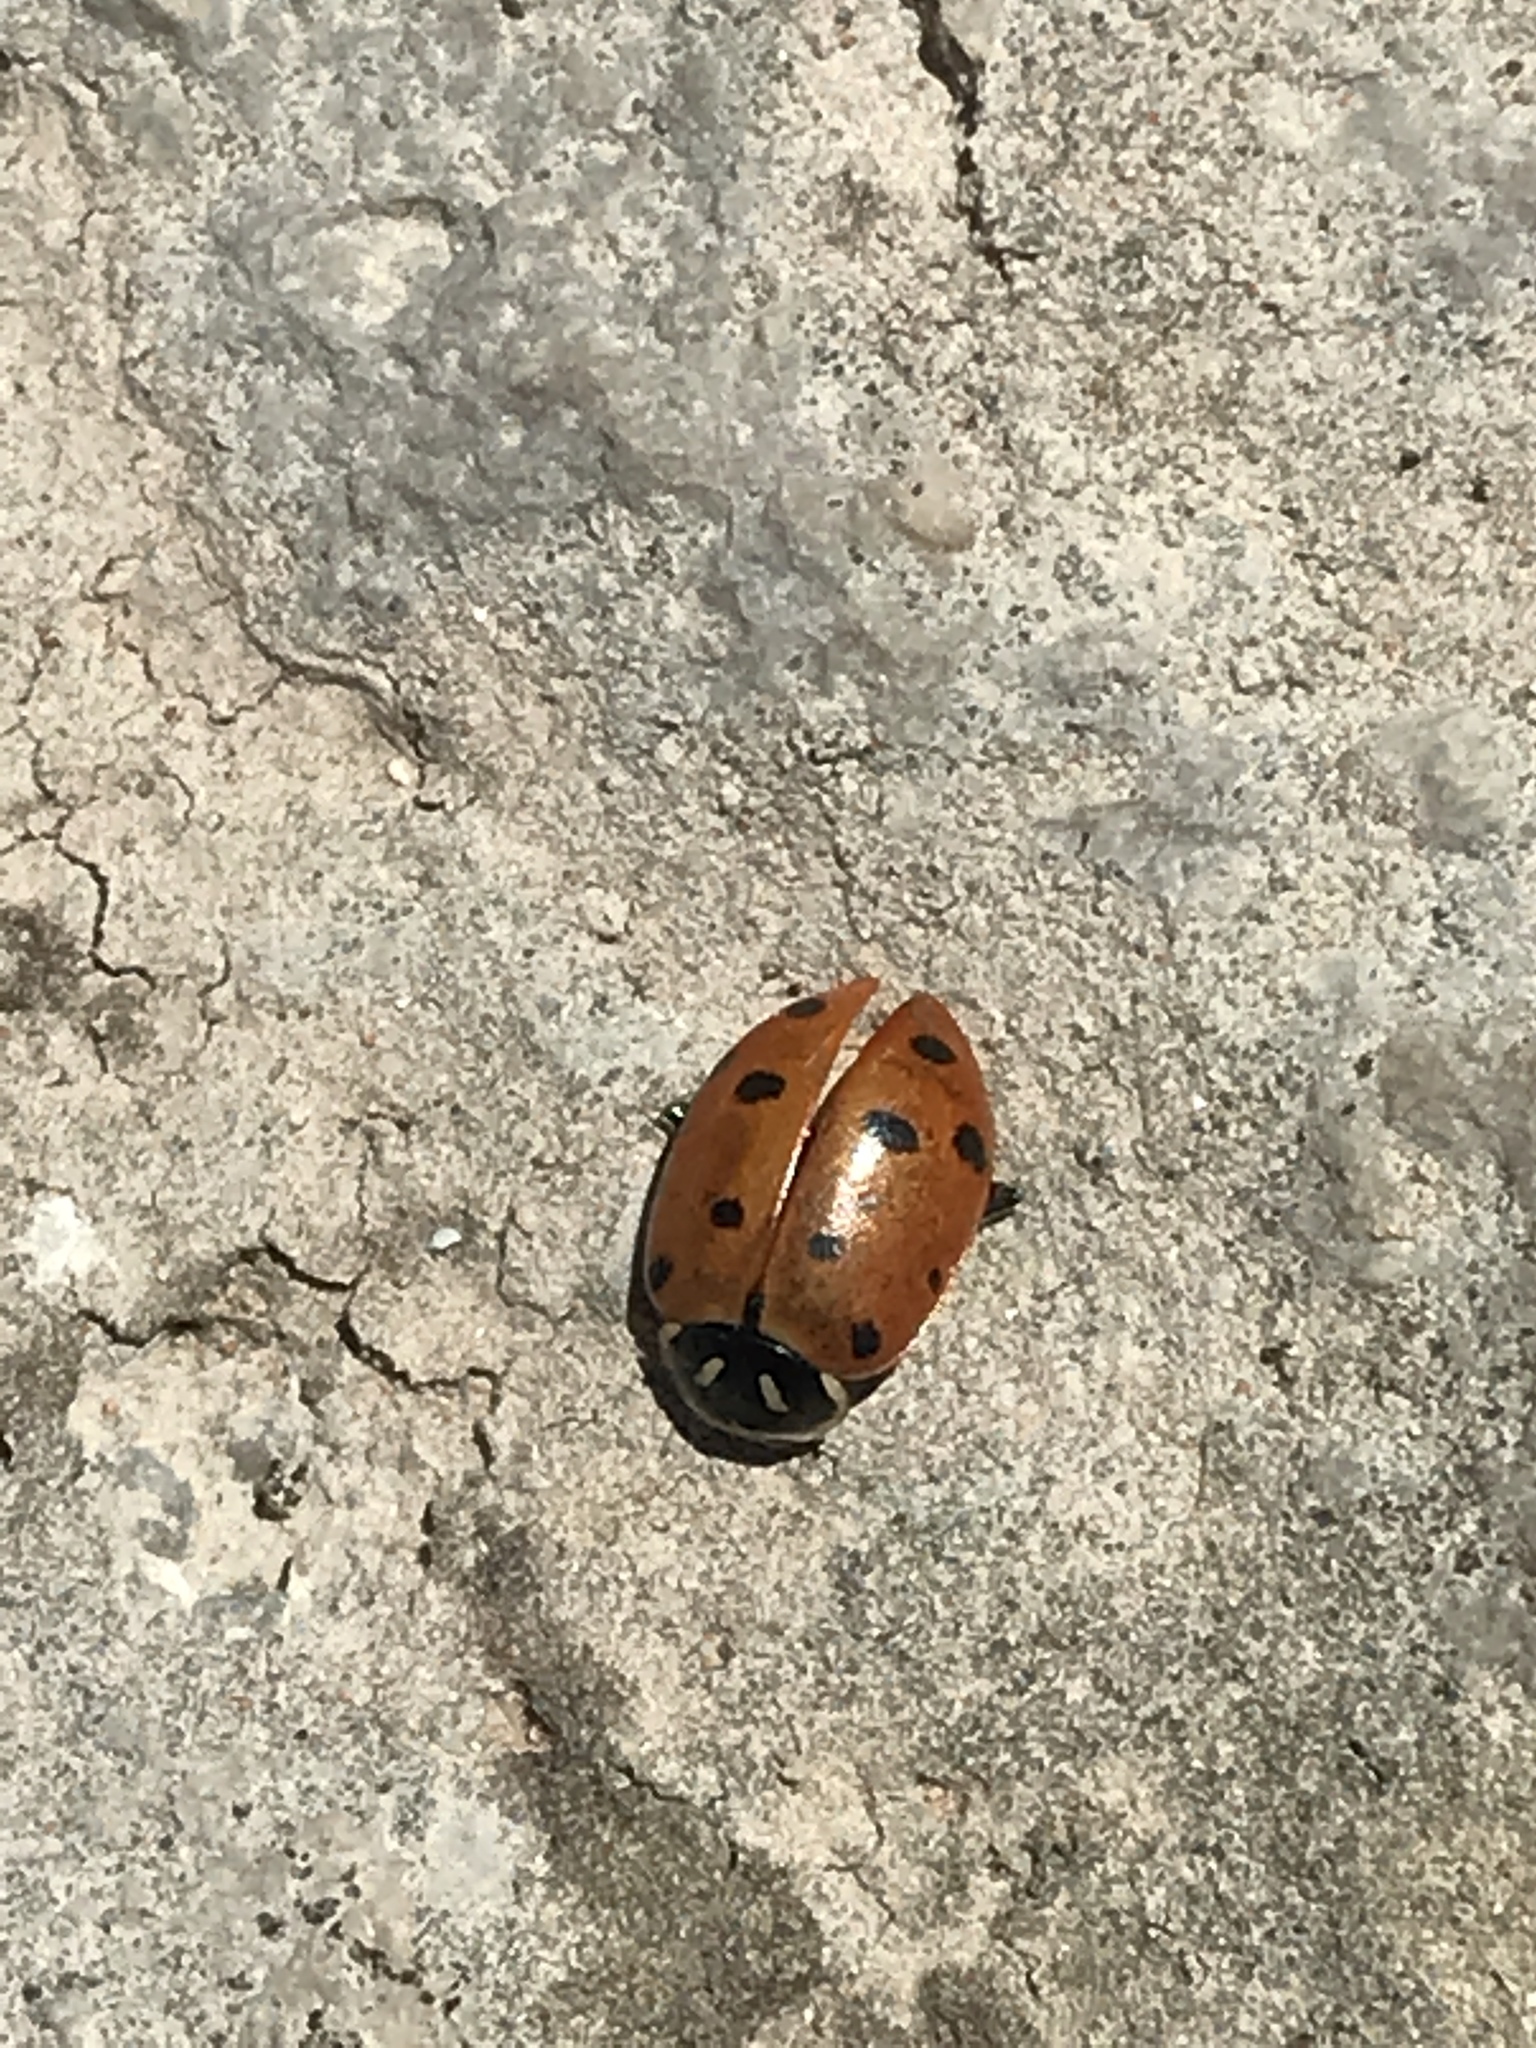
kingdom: Animalia
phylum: Arthropoda
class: Insecta
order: Coleoptera
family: Coccinellidae
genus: Hippodamia
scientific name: Hippodamia convergens
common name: Convergent lady beetle
